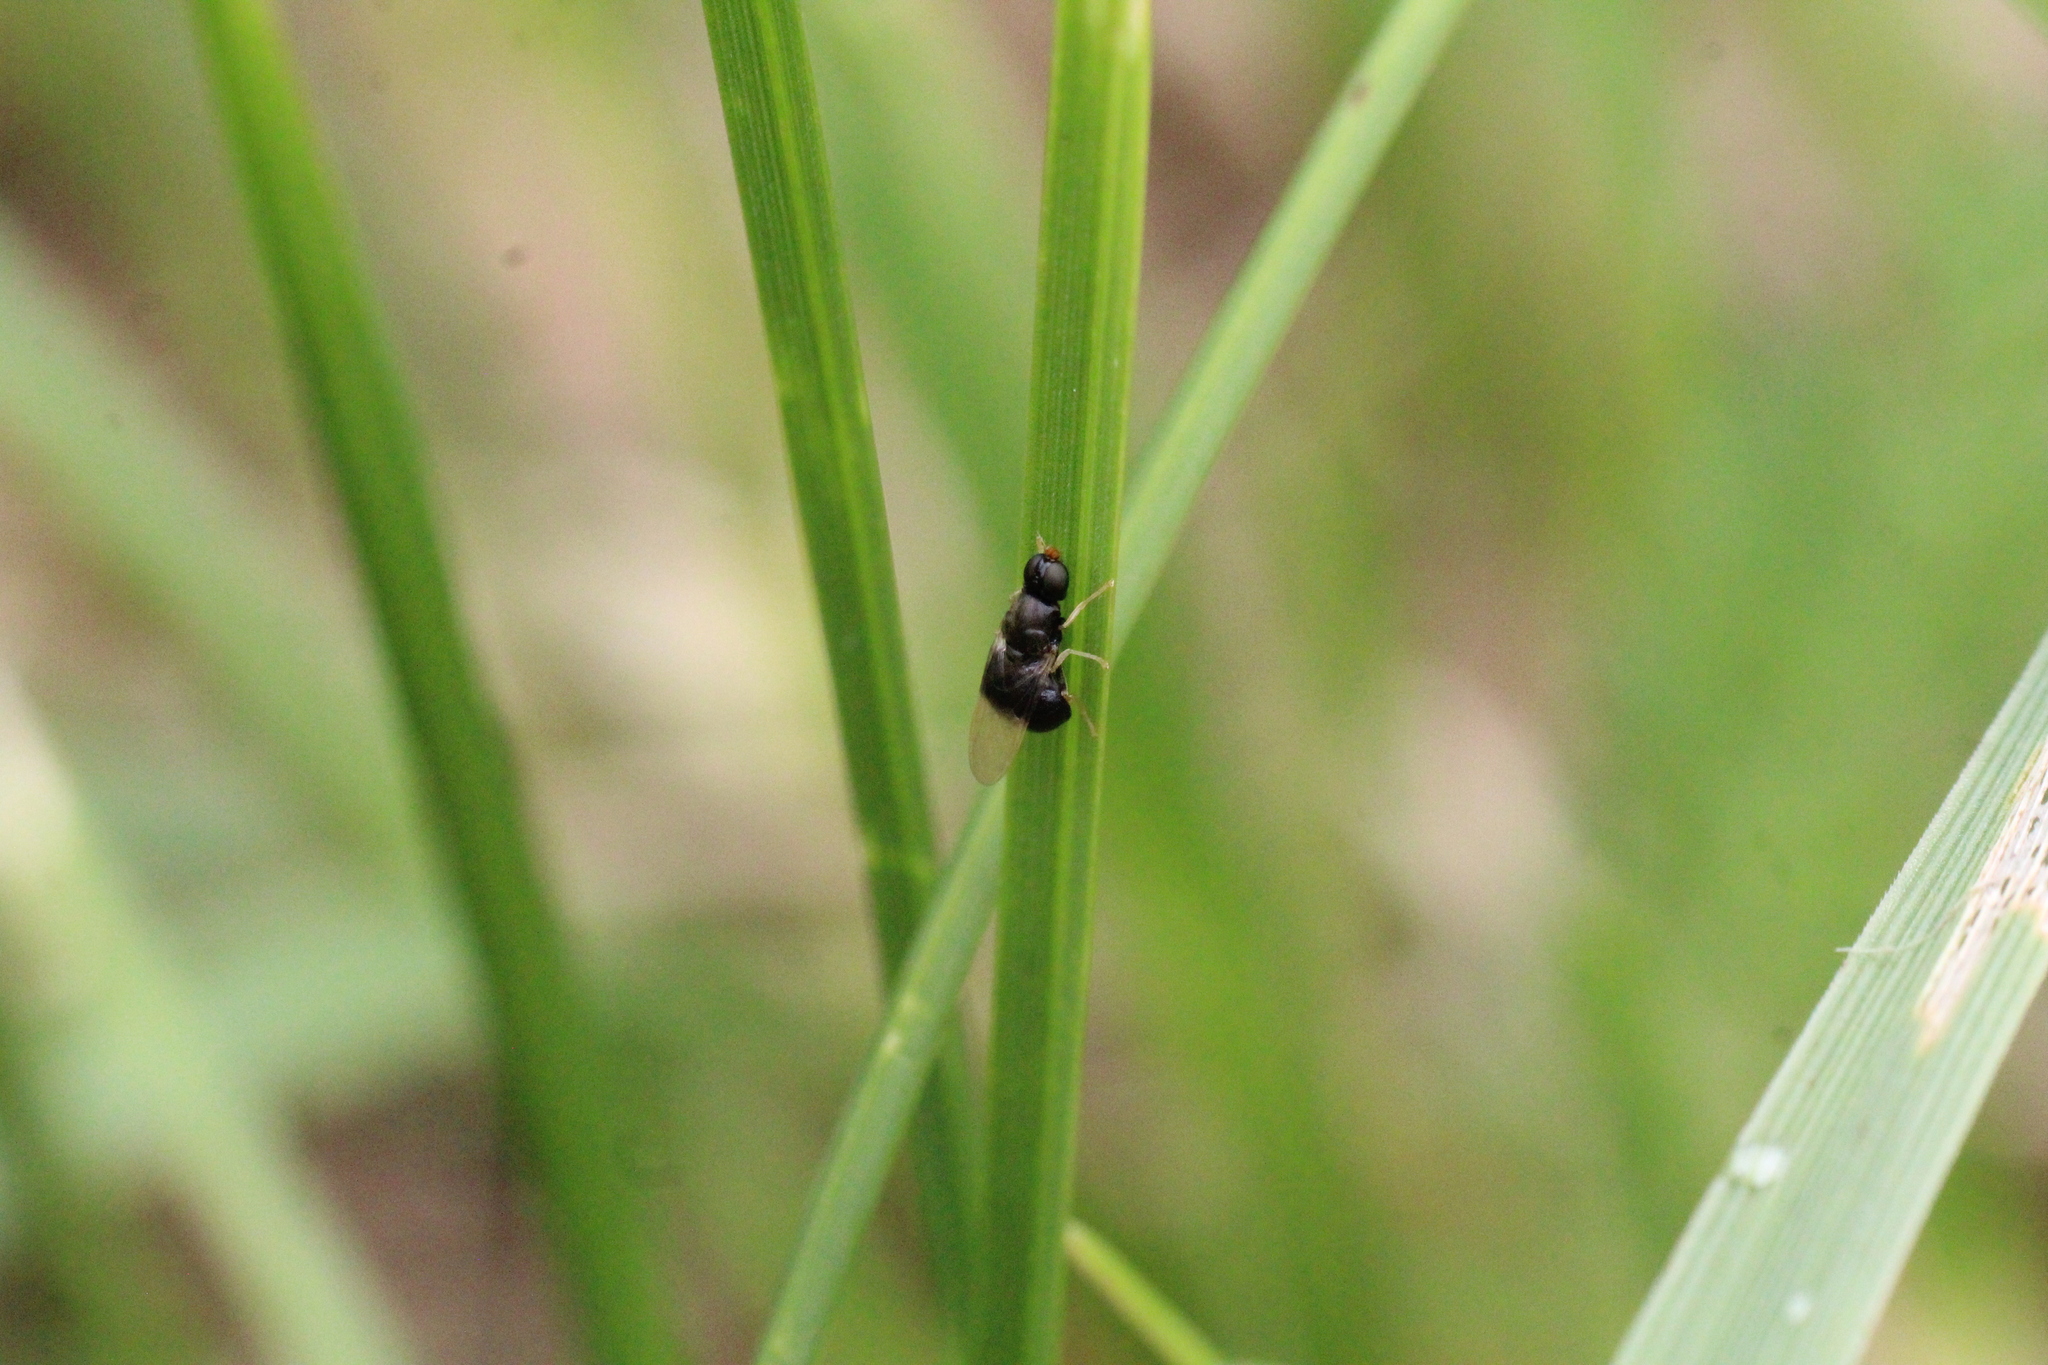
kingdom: Animalia
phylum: Arthropoda
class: Insecta
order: Diptera
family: Stratiomyidae
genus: Pachygaster
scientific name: Pachygaster atra
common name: Dark-winged black
